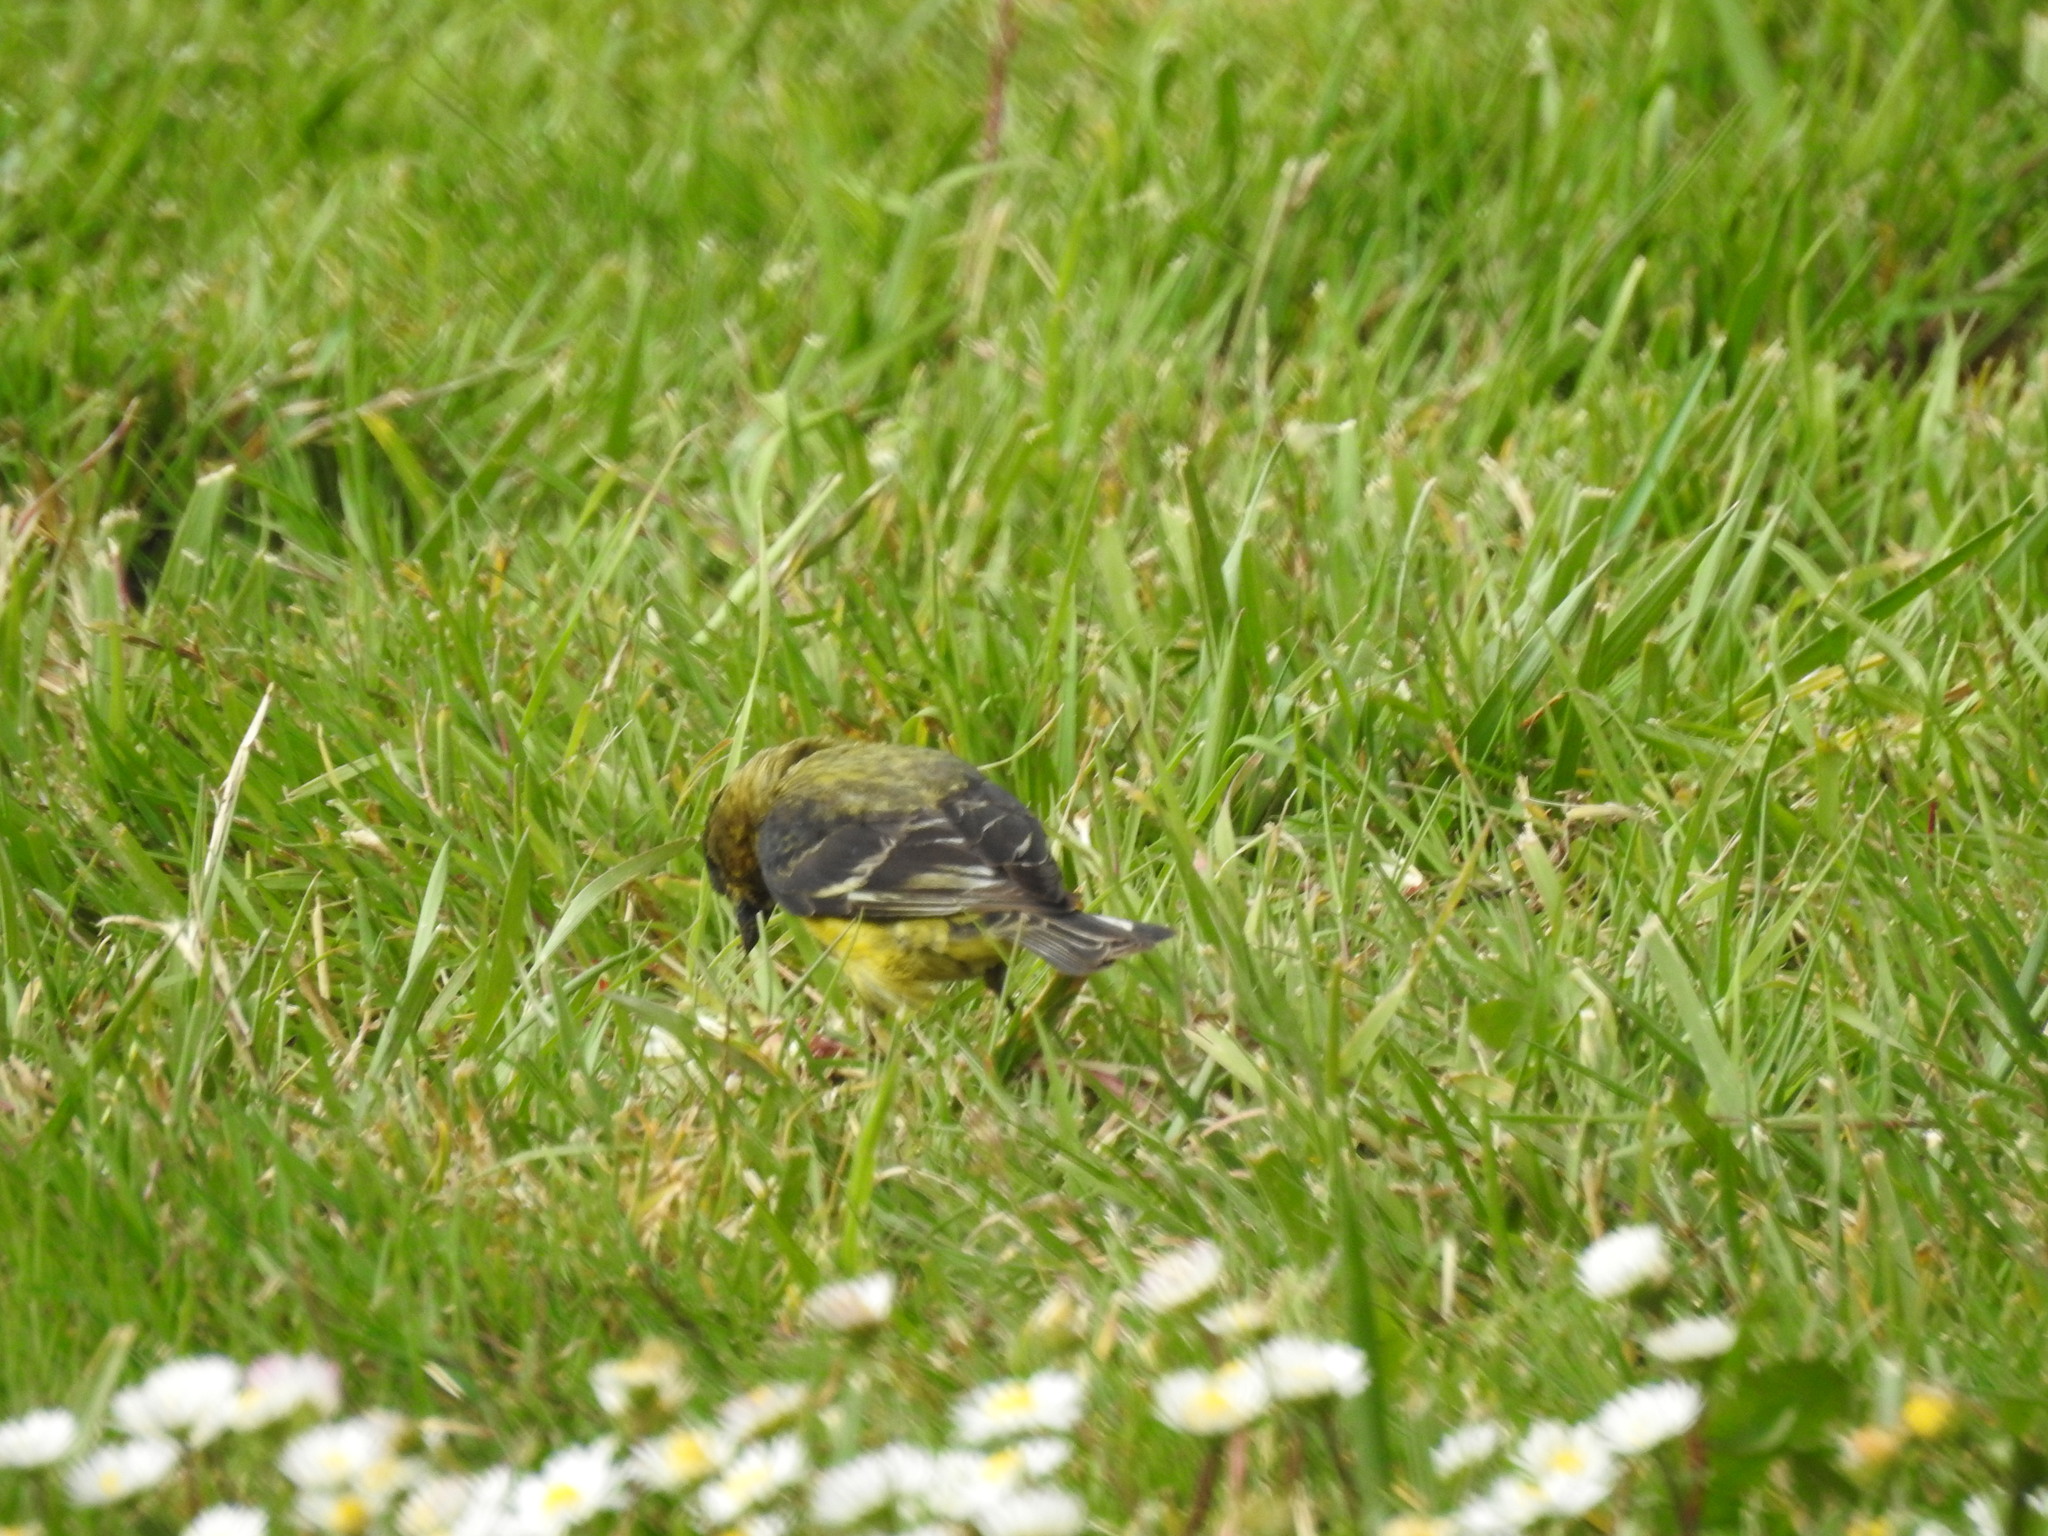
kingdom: Animalia
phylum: Chordata
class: Aves
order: Passeriformes
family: Fringillidae
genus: Spinus
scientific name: Spinus psaltria
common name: Lesser goldfinch
